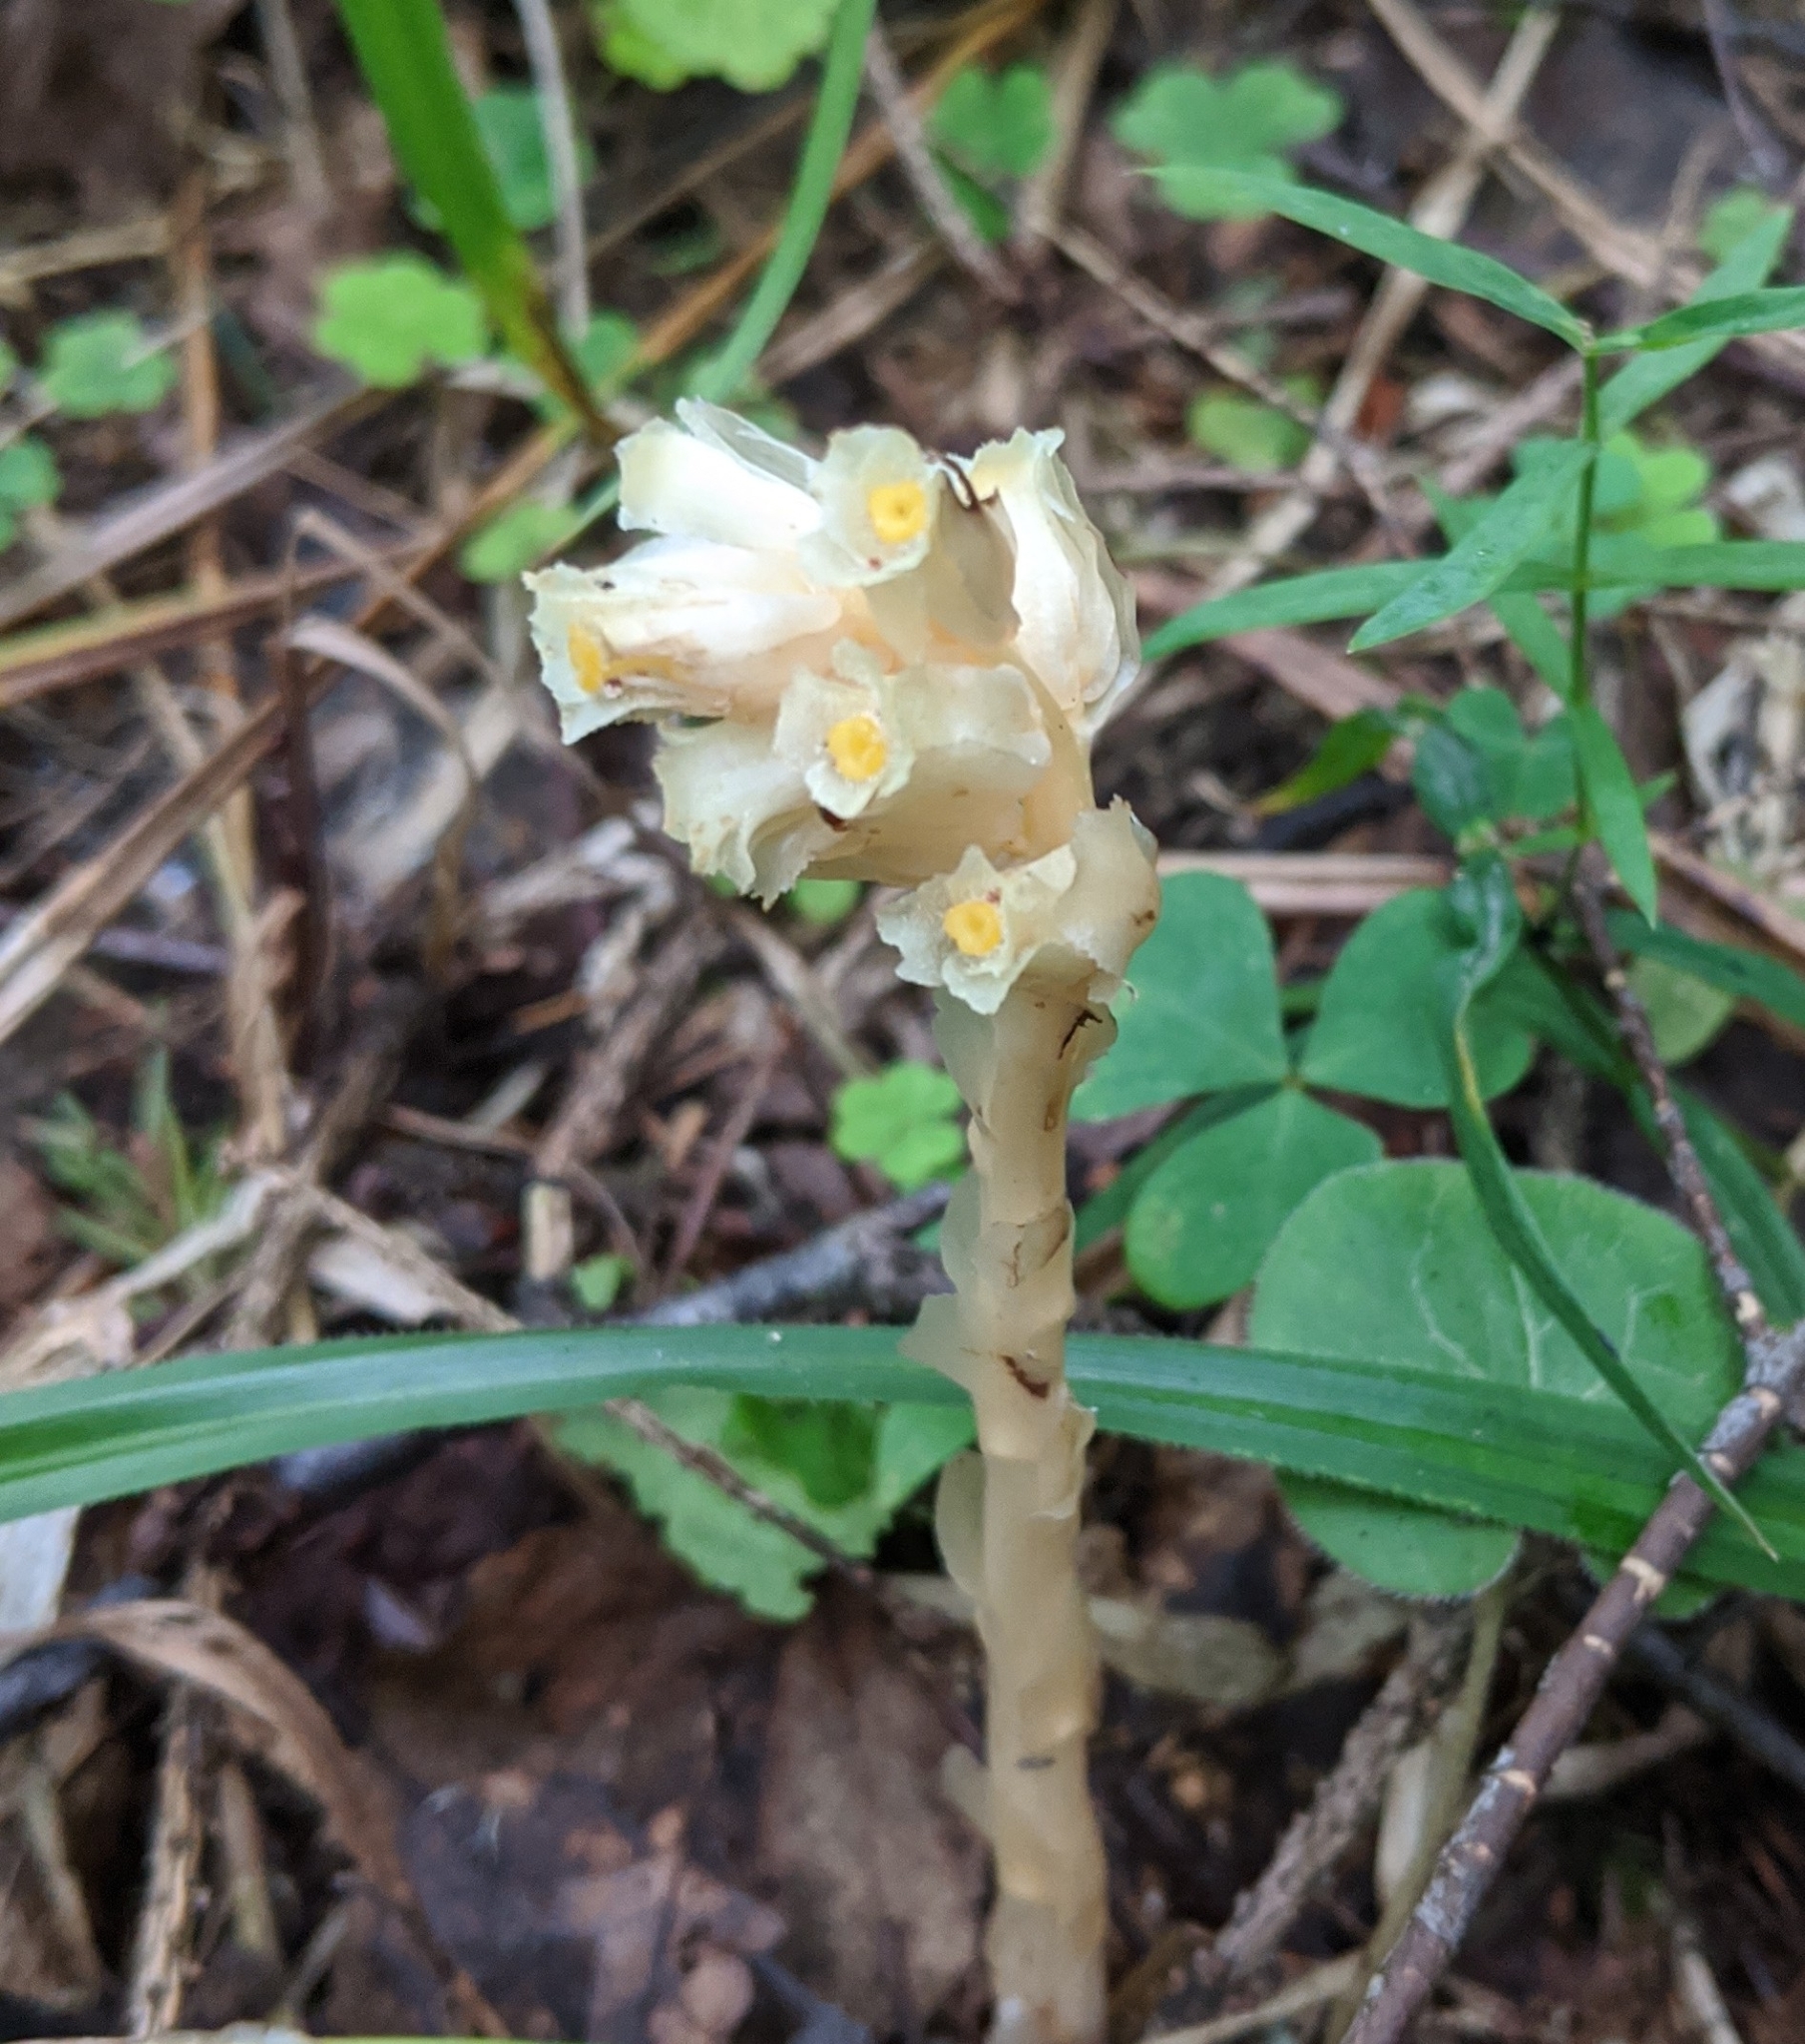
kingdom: Plantae
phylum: Tracheophyta
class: Magnoliopsida
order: Ericales
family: Ericaceae
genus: Hypopitys
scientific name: Hypopitys monotropa
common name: Yellow bird's-nest
